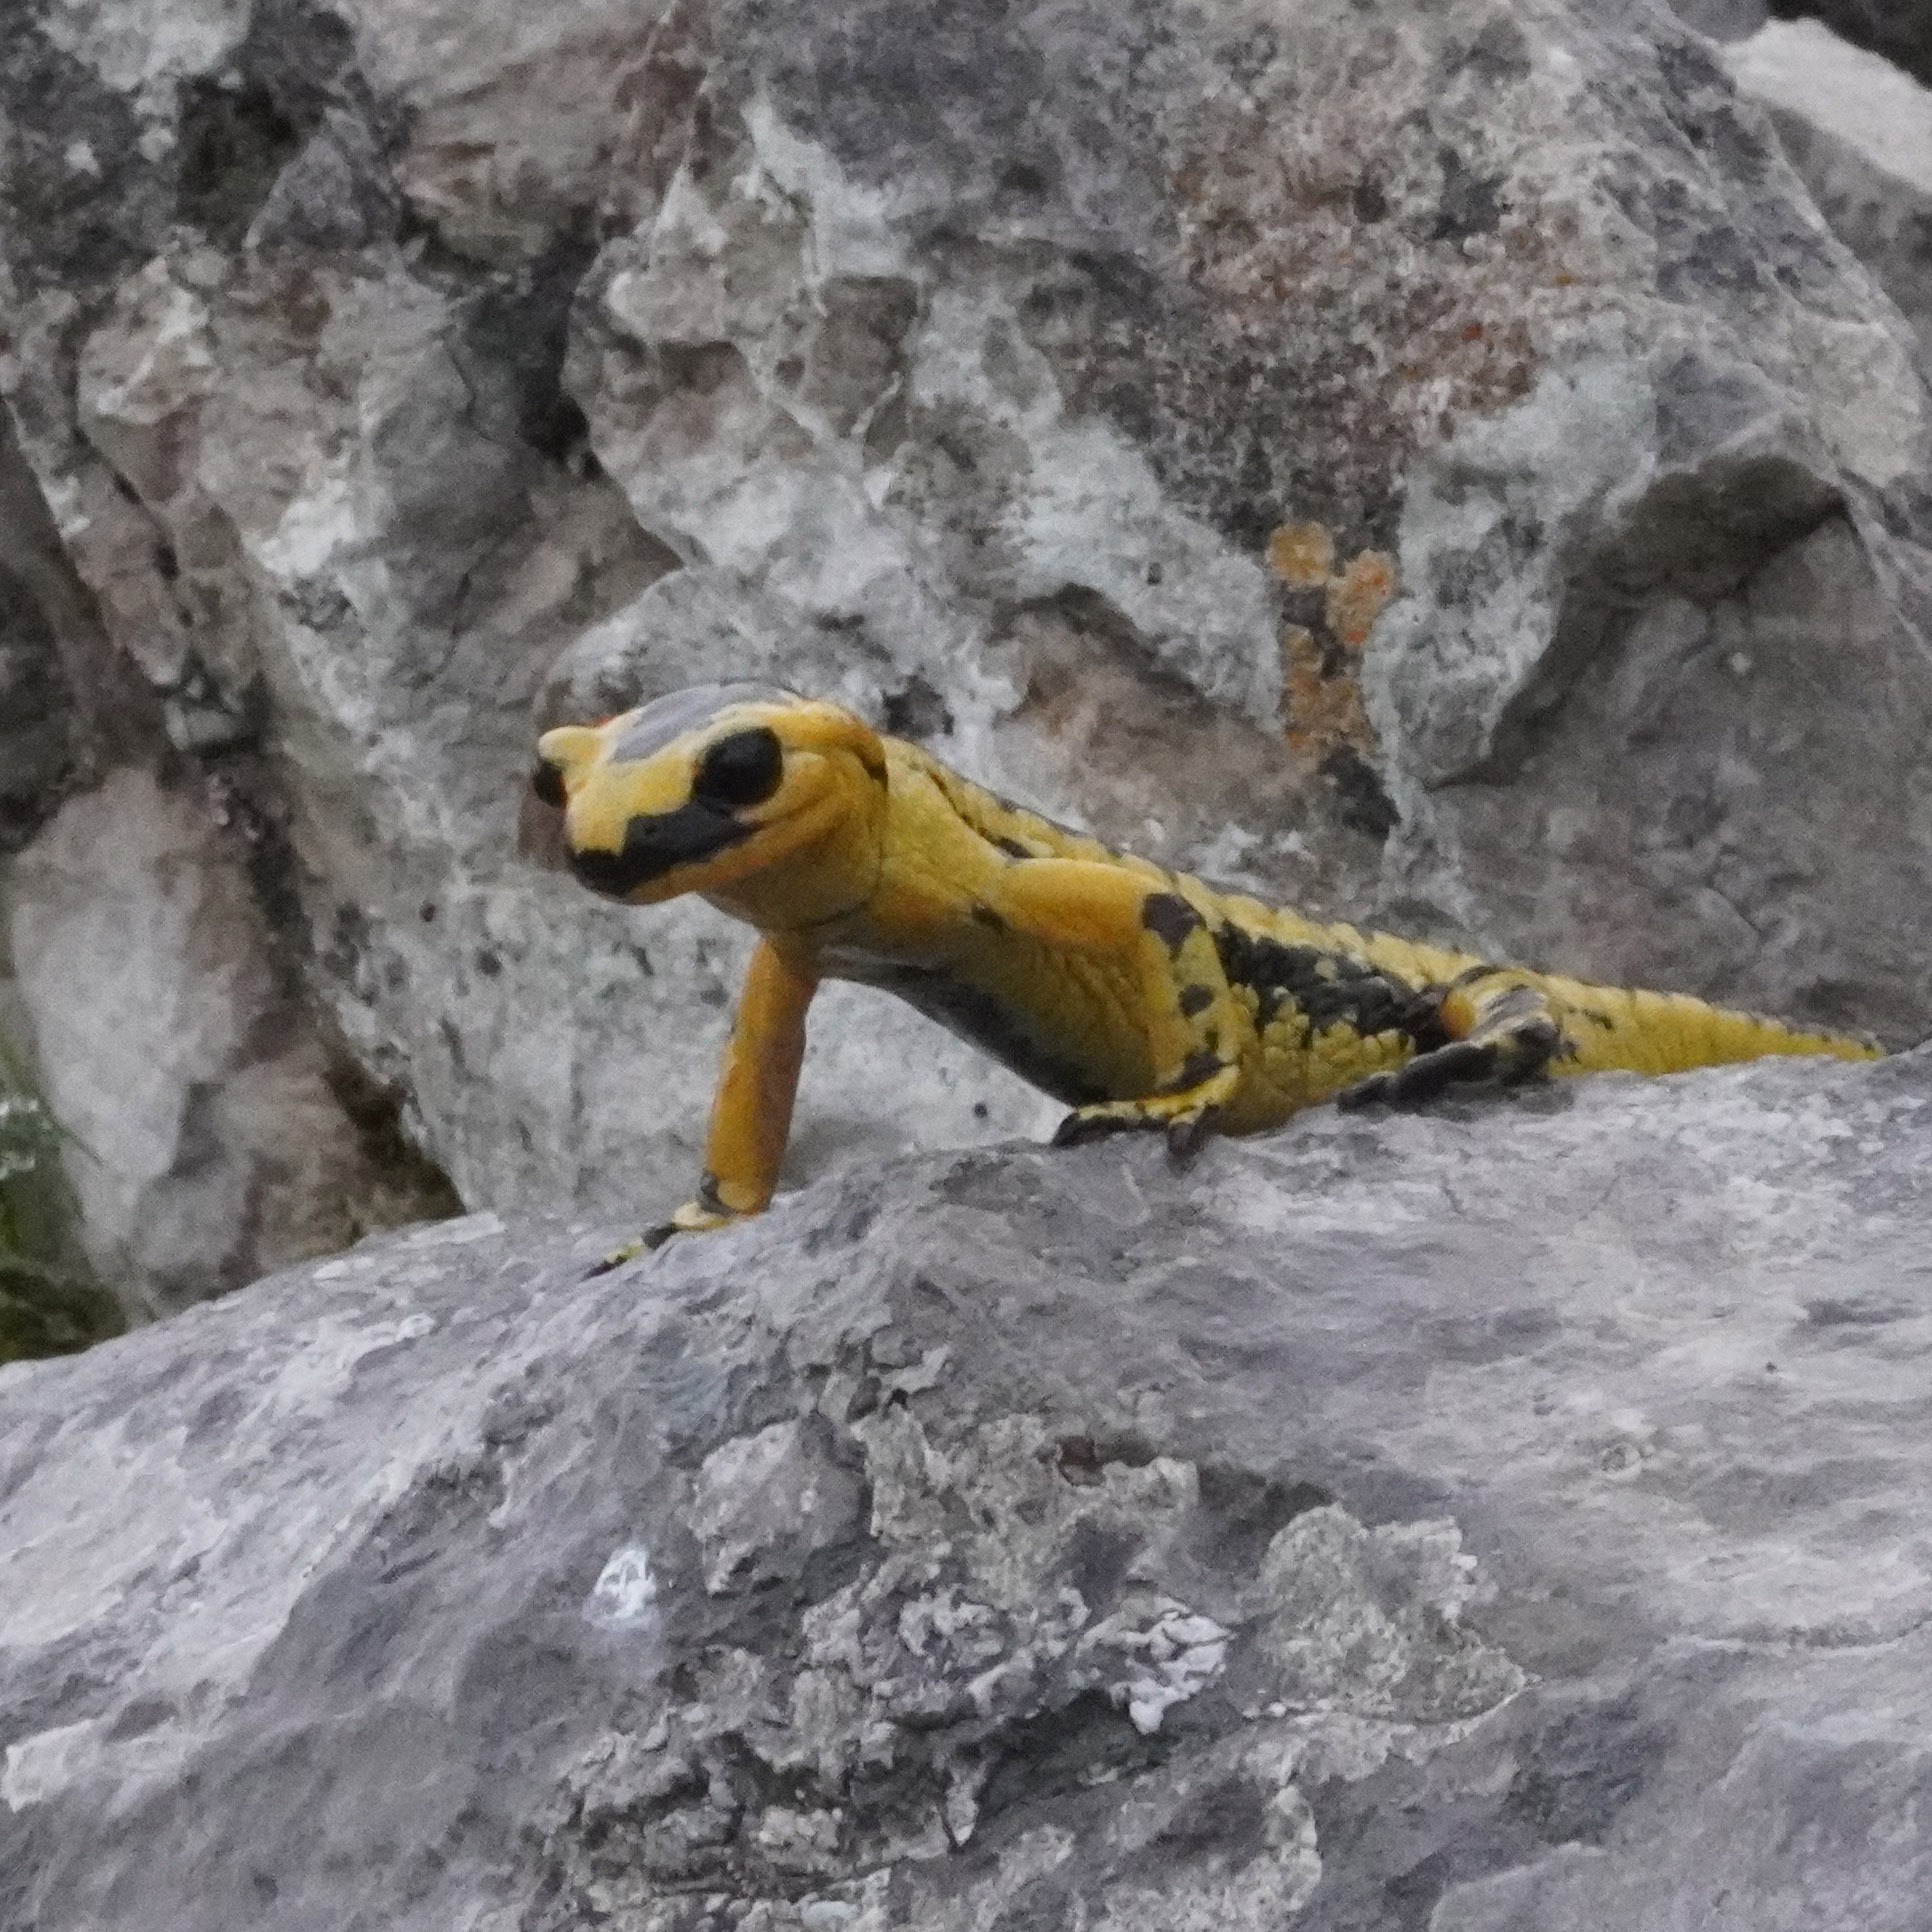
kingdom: Animalia
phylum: Chordata
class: Amphibia
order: Caudata
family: Salamandridae
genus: Salamandra
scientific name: Salamandra salamandra
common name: Fire salamander
